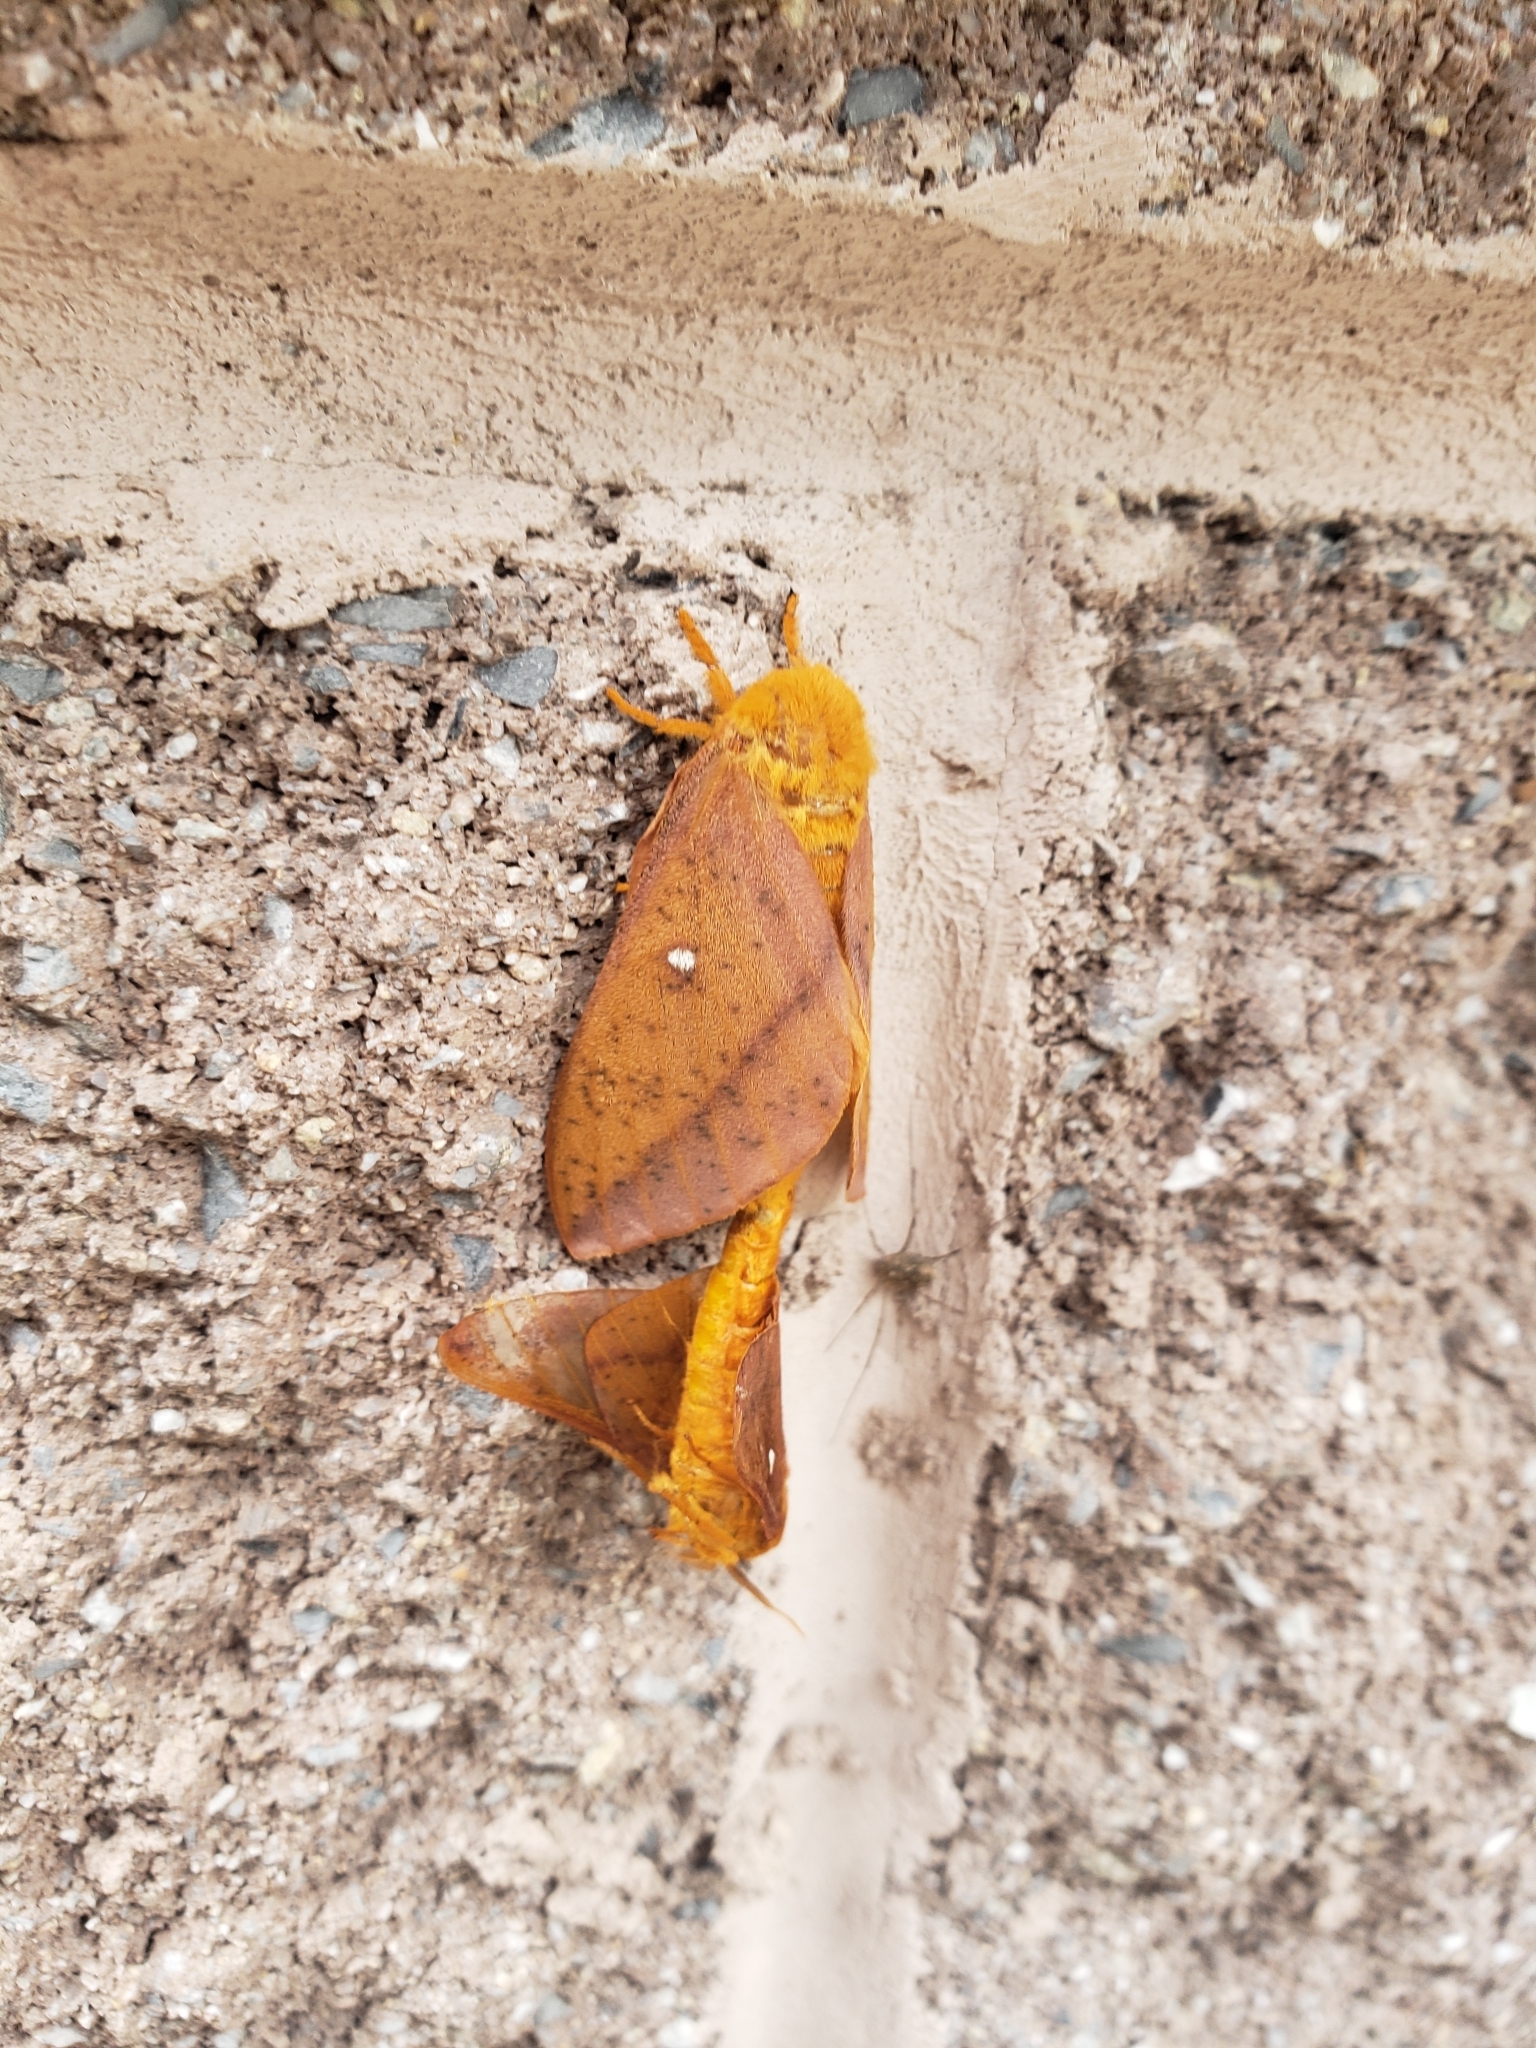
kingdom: Animalia
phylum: Arthropoda
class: Insecta
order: Lepidoptera
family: Saturniidae
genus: Anisota
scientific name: Anisota senatoria
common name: Orange-striped oakworm moth
